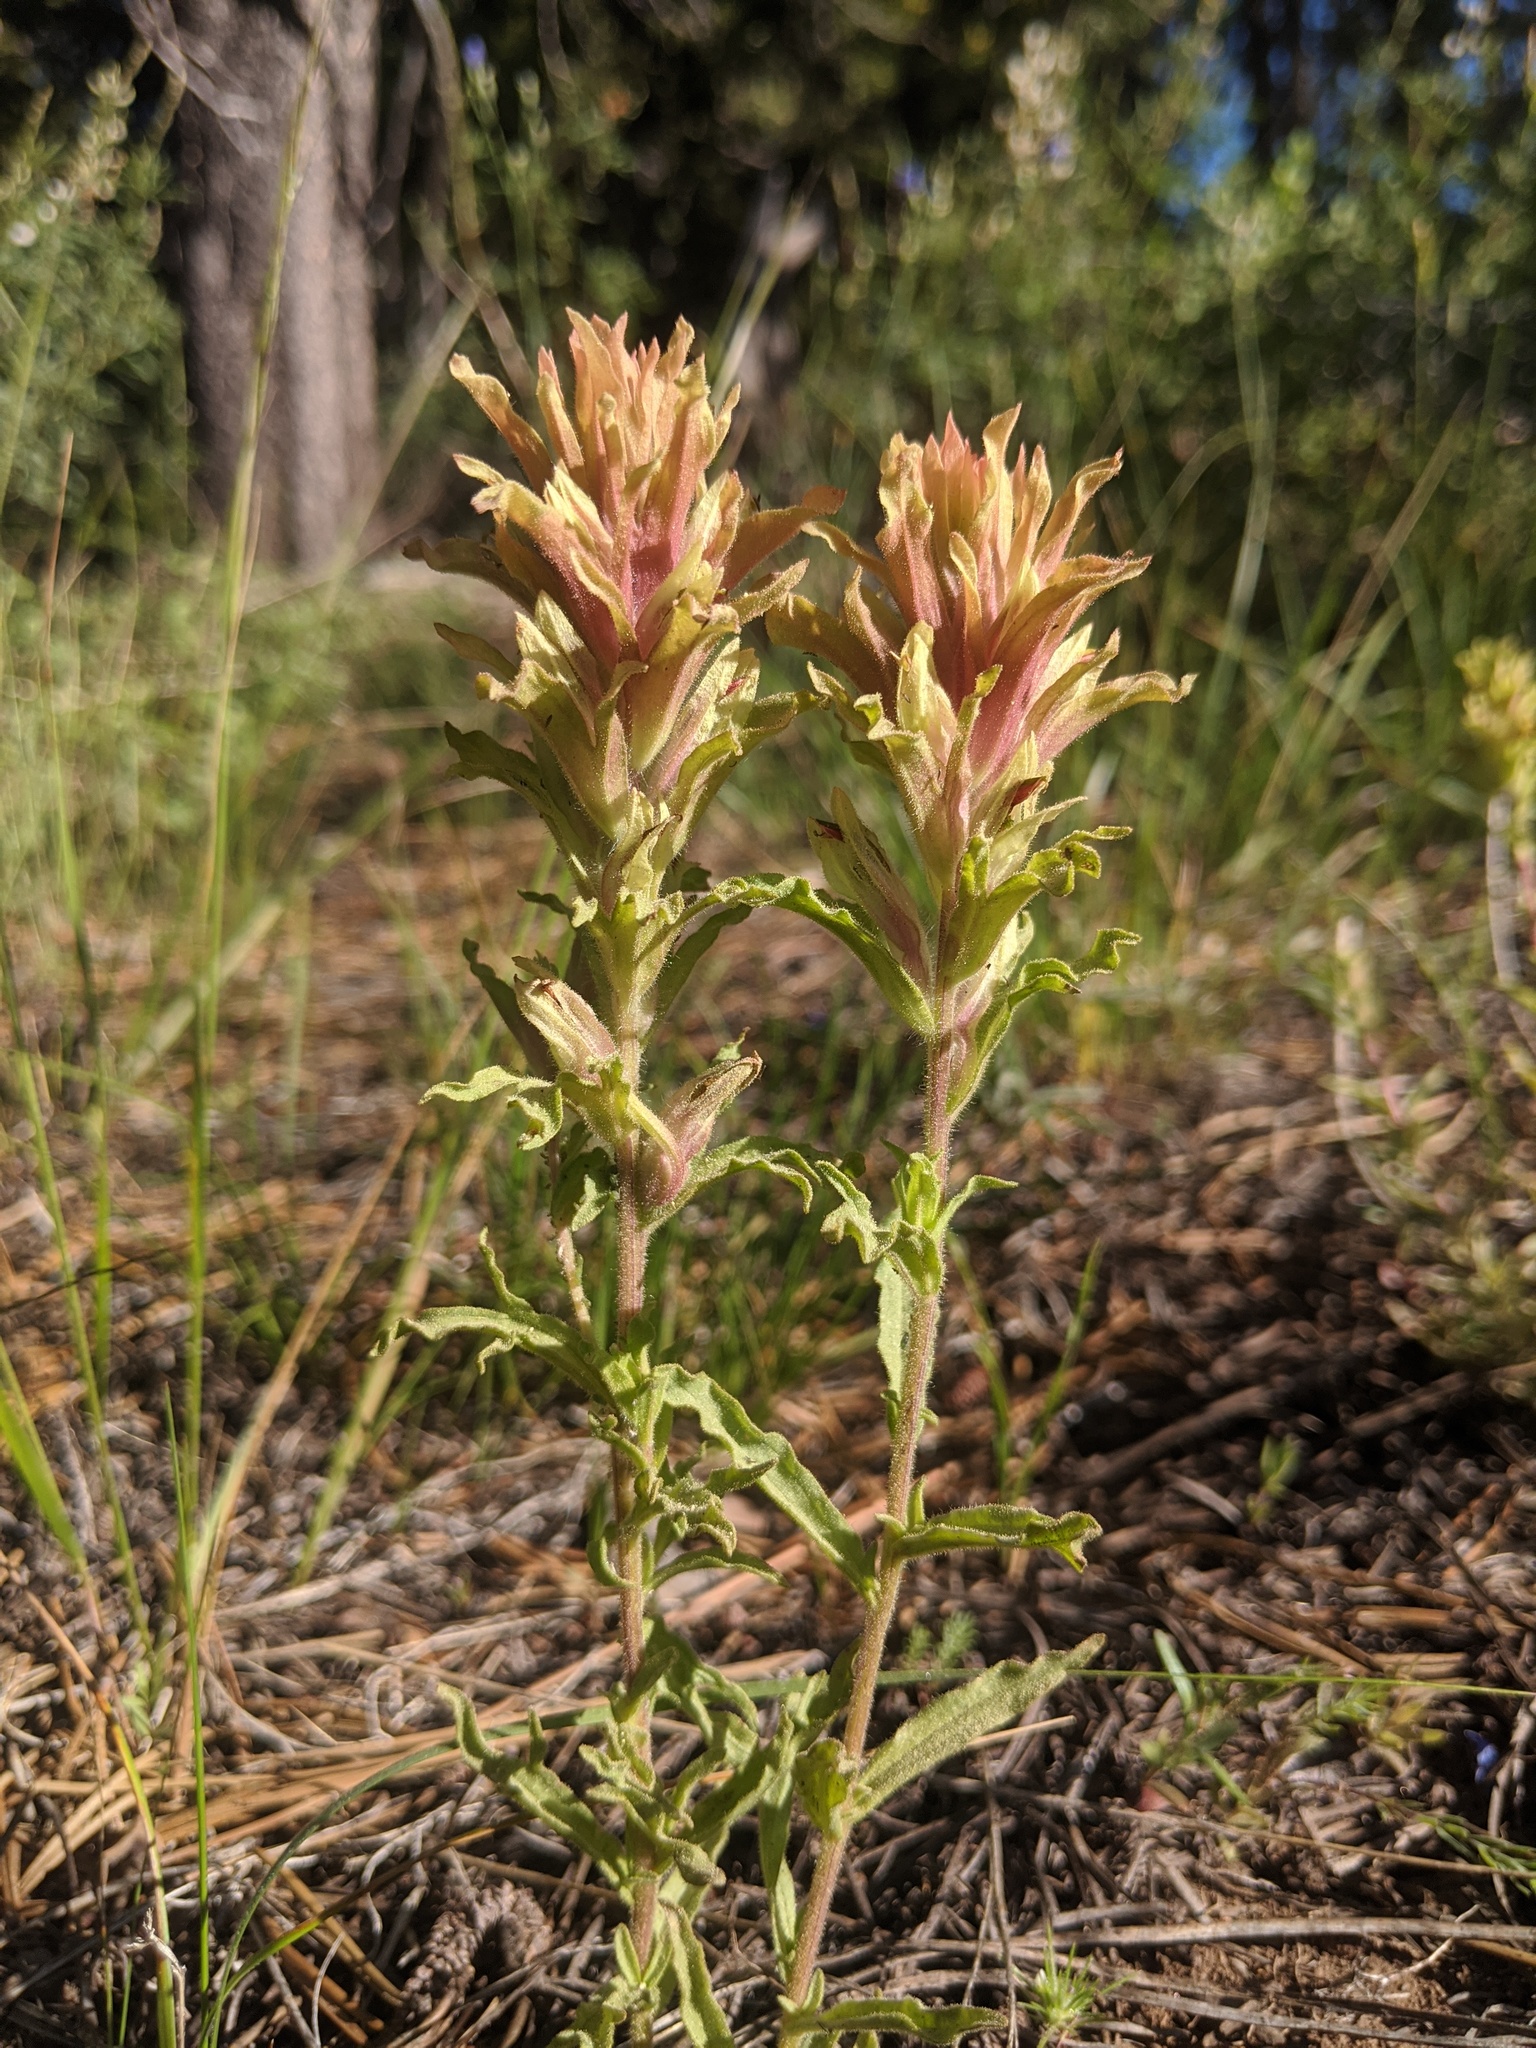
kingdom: Plantae
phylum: Tracheophyta
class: Magnoliopsida
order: Lamiales
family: Orobanchaceae
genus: Castilleja
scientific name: Castilleja chlorotica
